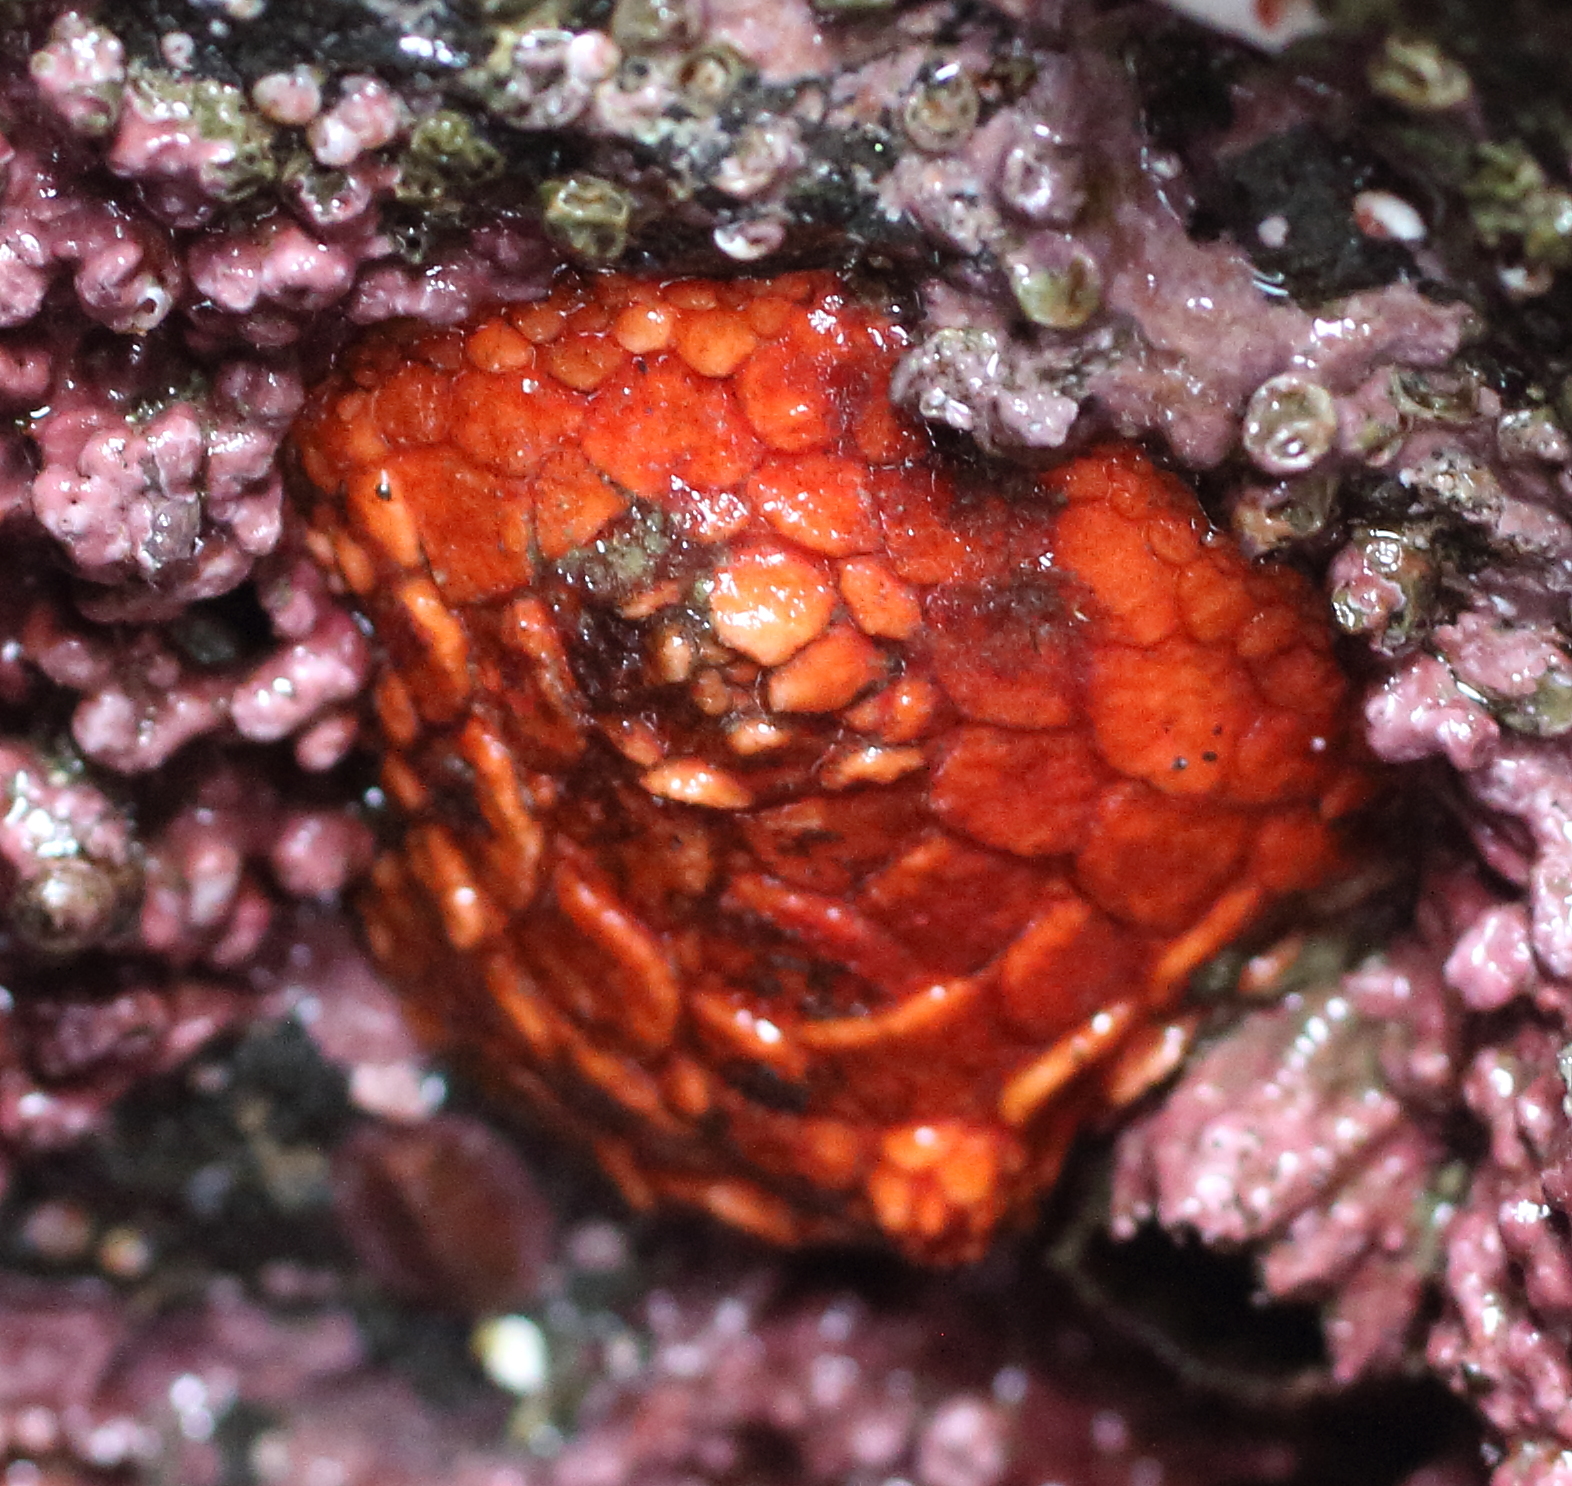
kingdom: Animalia
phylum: Echinodermata
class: Holothuroidea
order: Dendrochirotida
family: Psolidae
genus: Psolus
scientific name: Psolus chitonoides
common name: Creeping pedal sea cucumber
